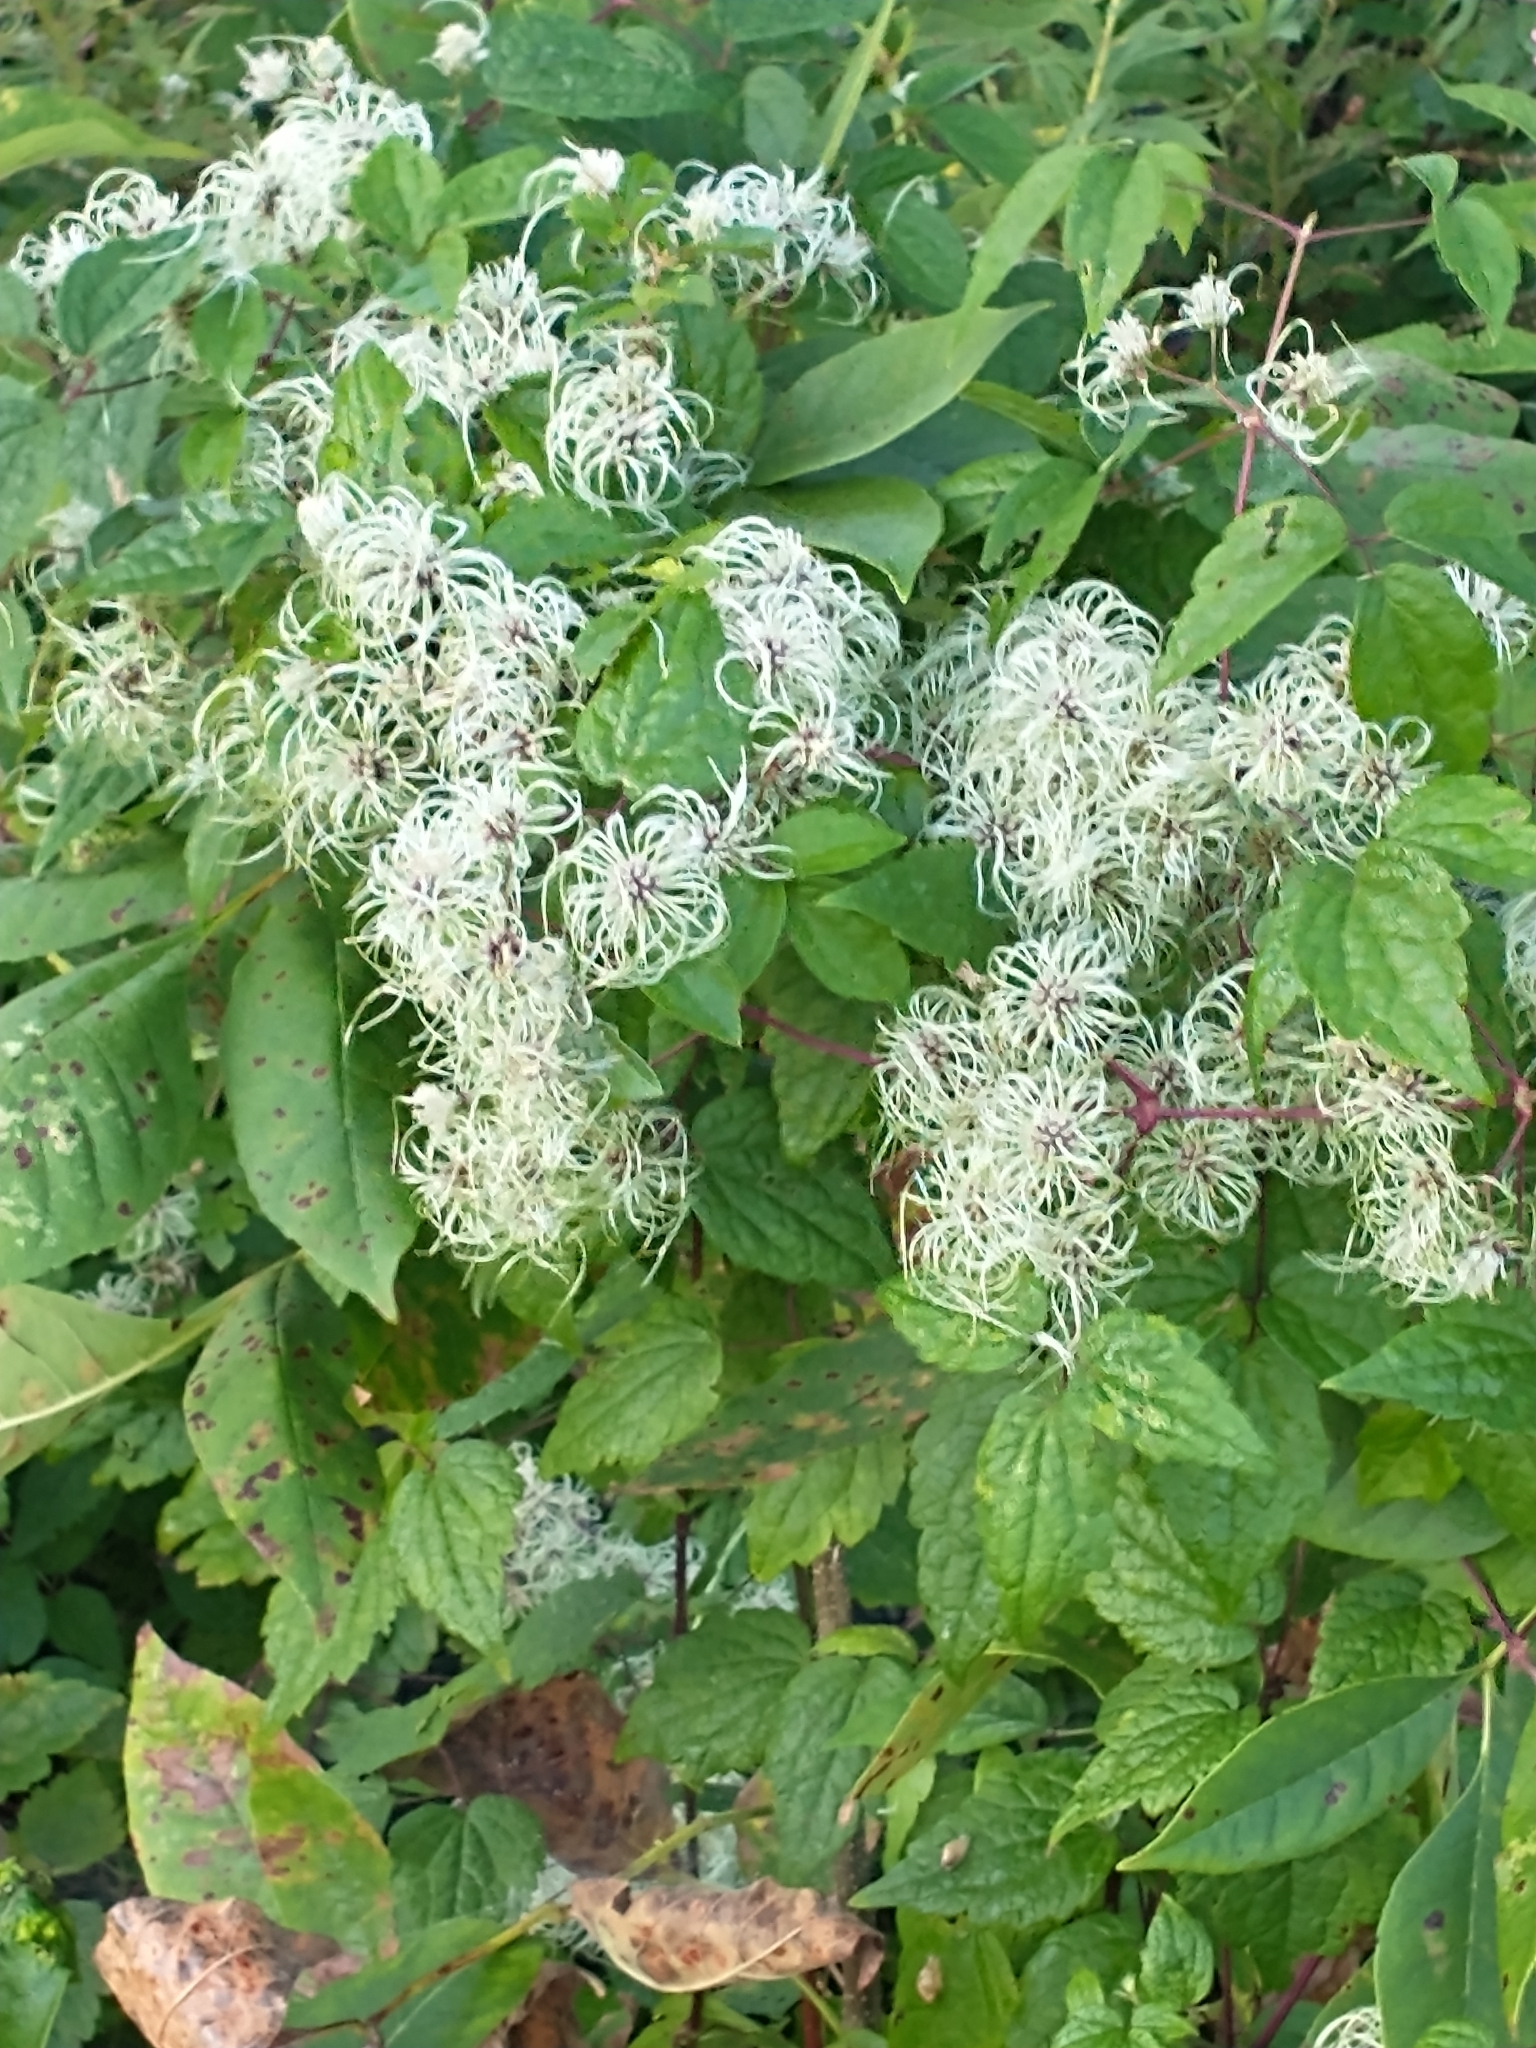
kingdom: Plantae
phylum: Tracheophyta
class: Magnoliopsida
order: Ranunculales
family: Ranunculaceae
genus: Clematis
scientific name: Clematis virginiana
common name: Virgin's-bower
